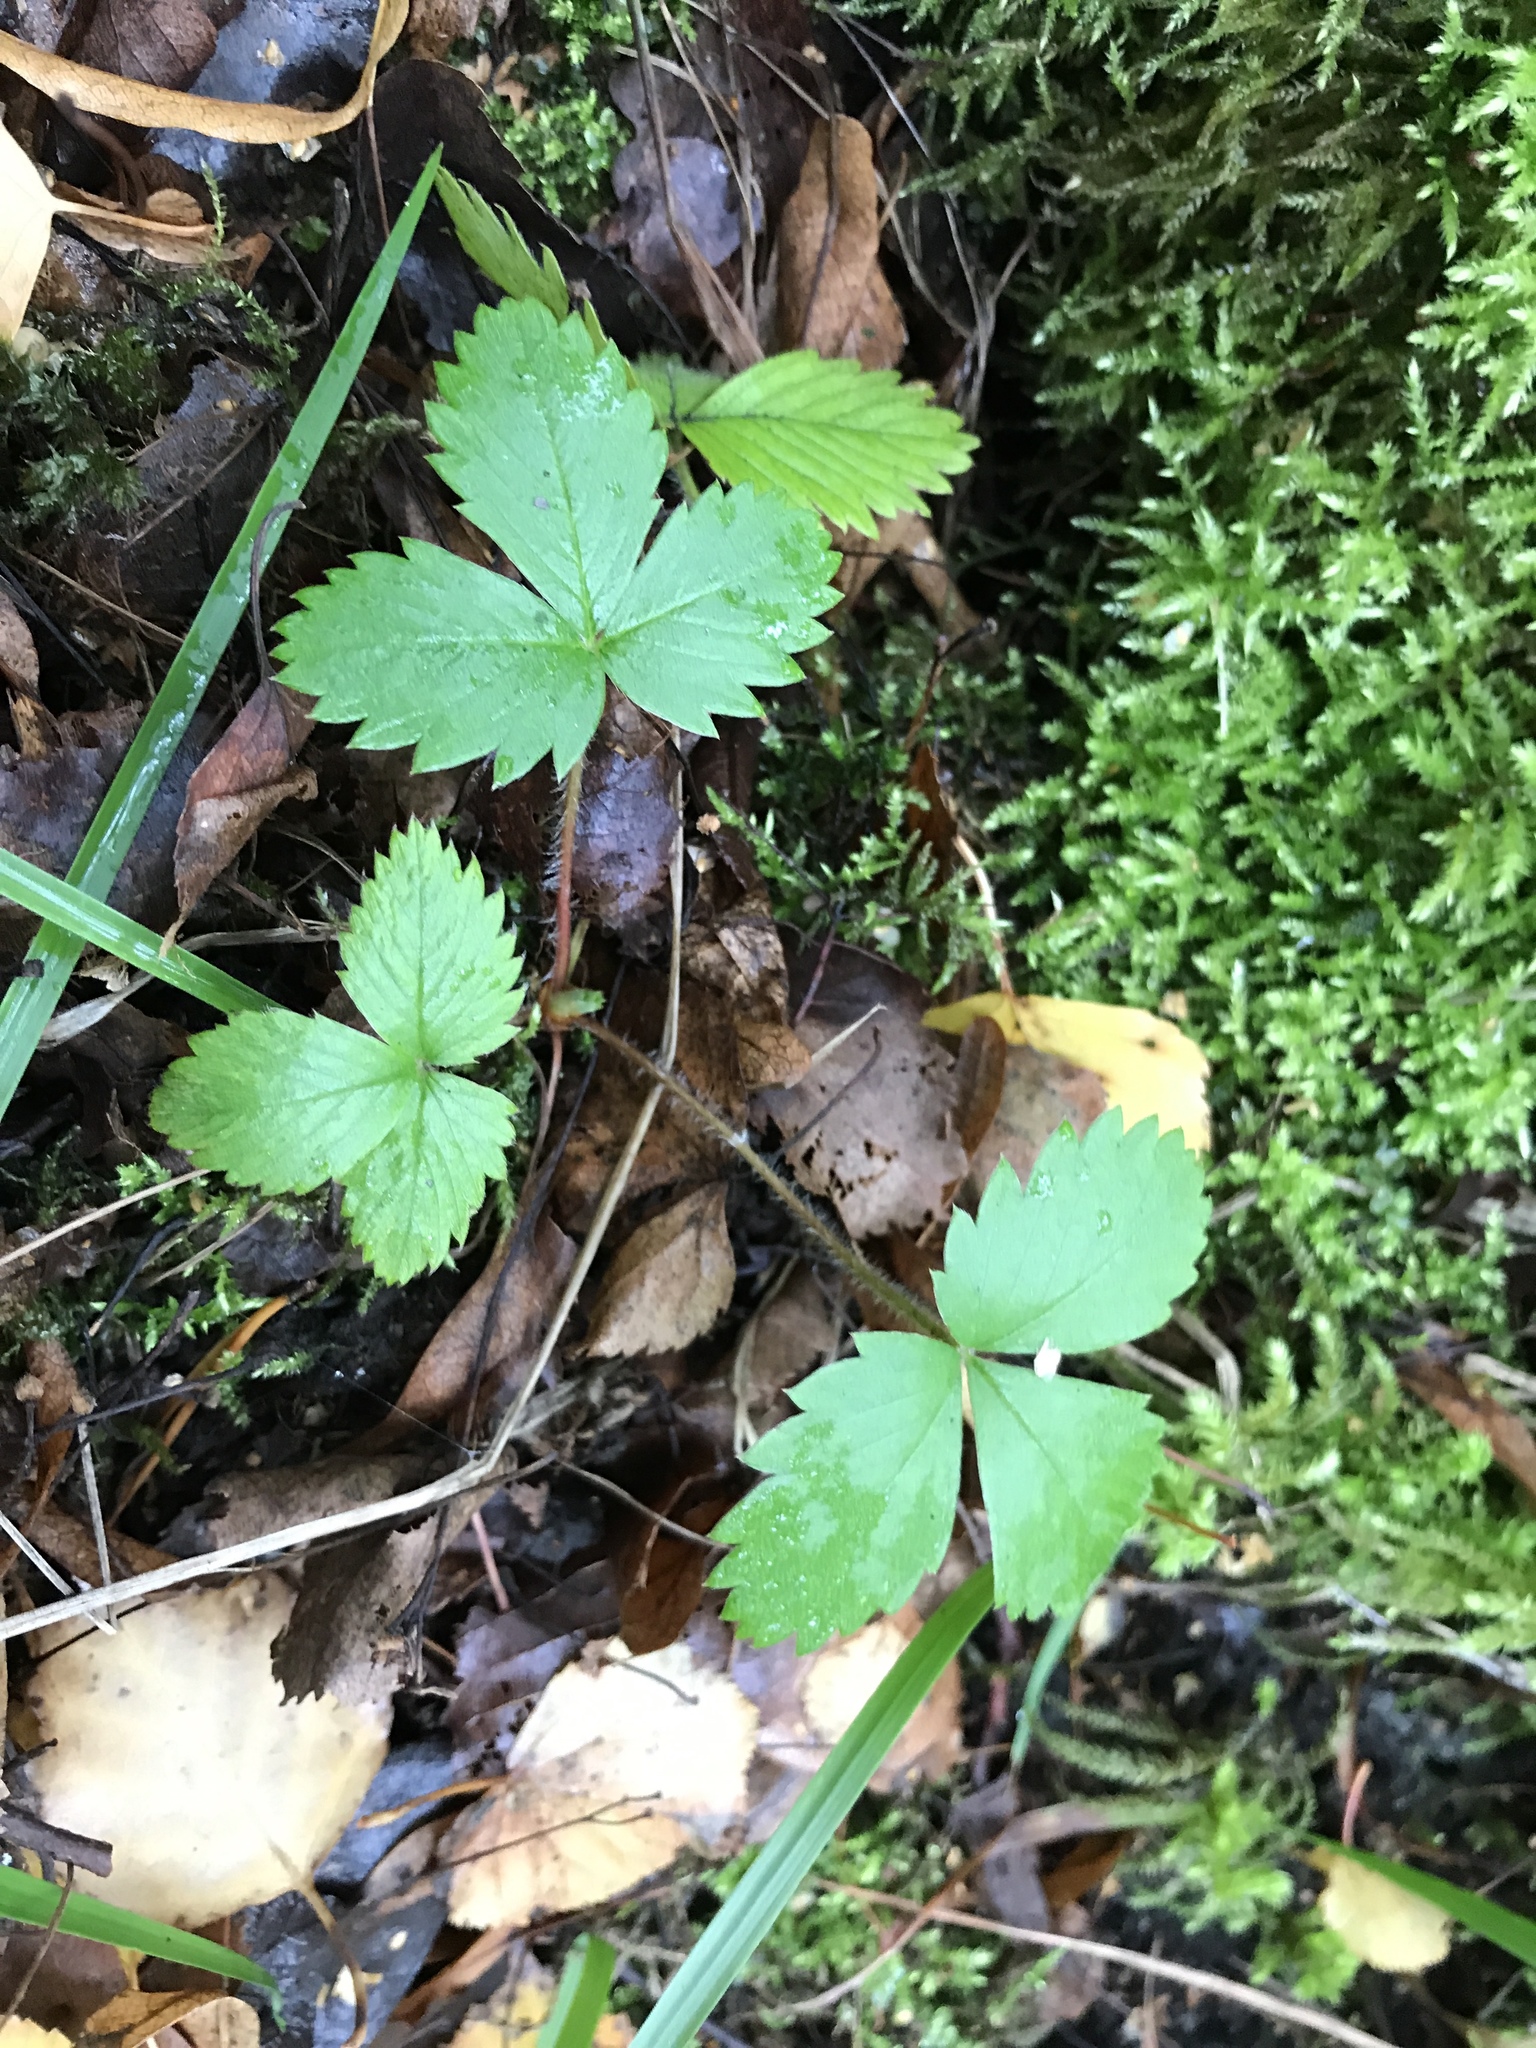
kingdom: Plantae
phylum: Tracheophyta
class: Magnoliopsida
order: Rosales
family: Rosaceae
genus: Fragaria
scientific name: Fragaria vesca
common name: Wild strawberry
